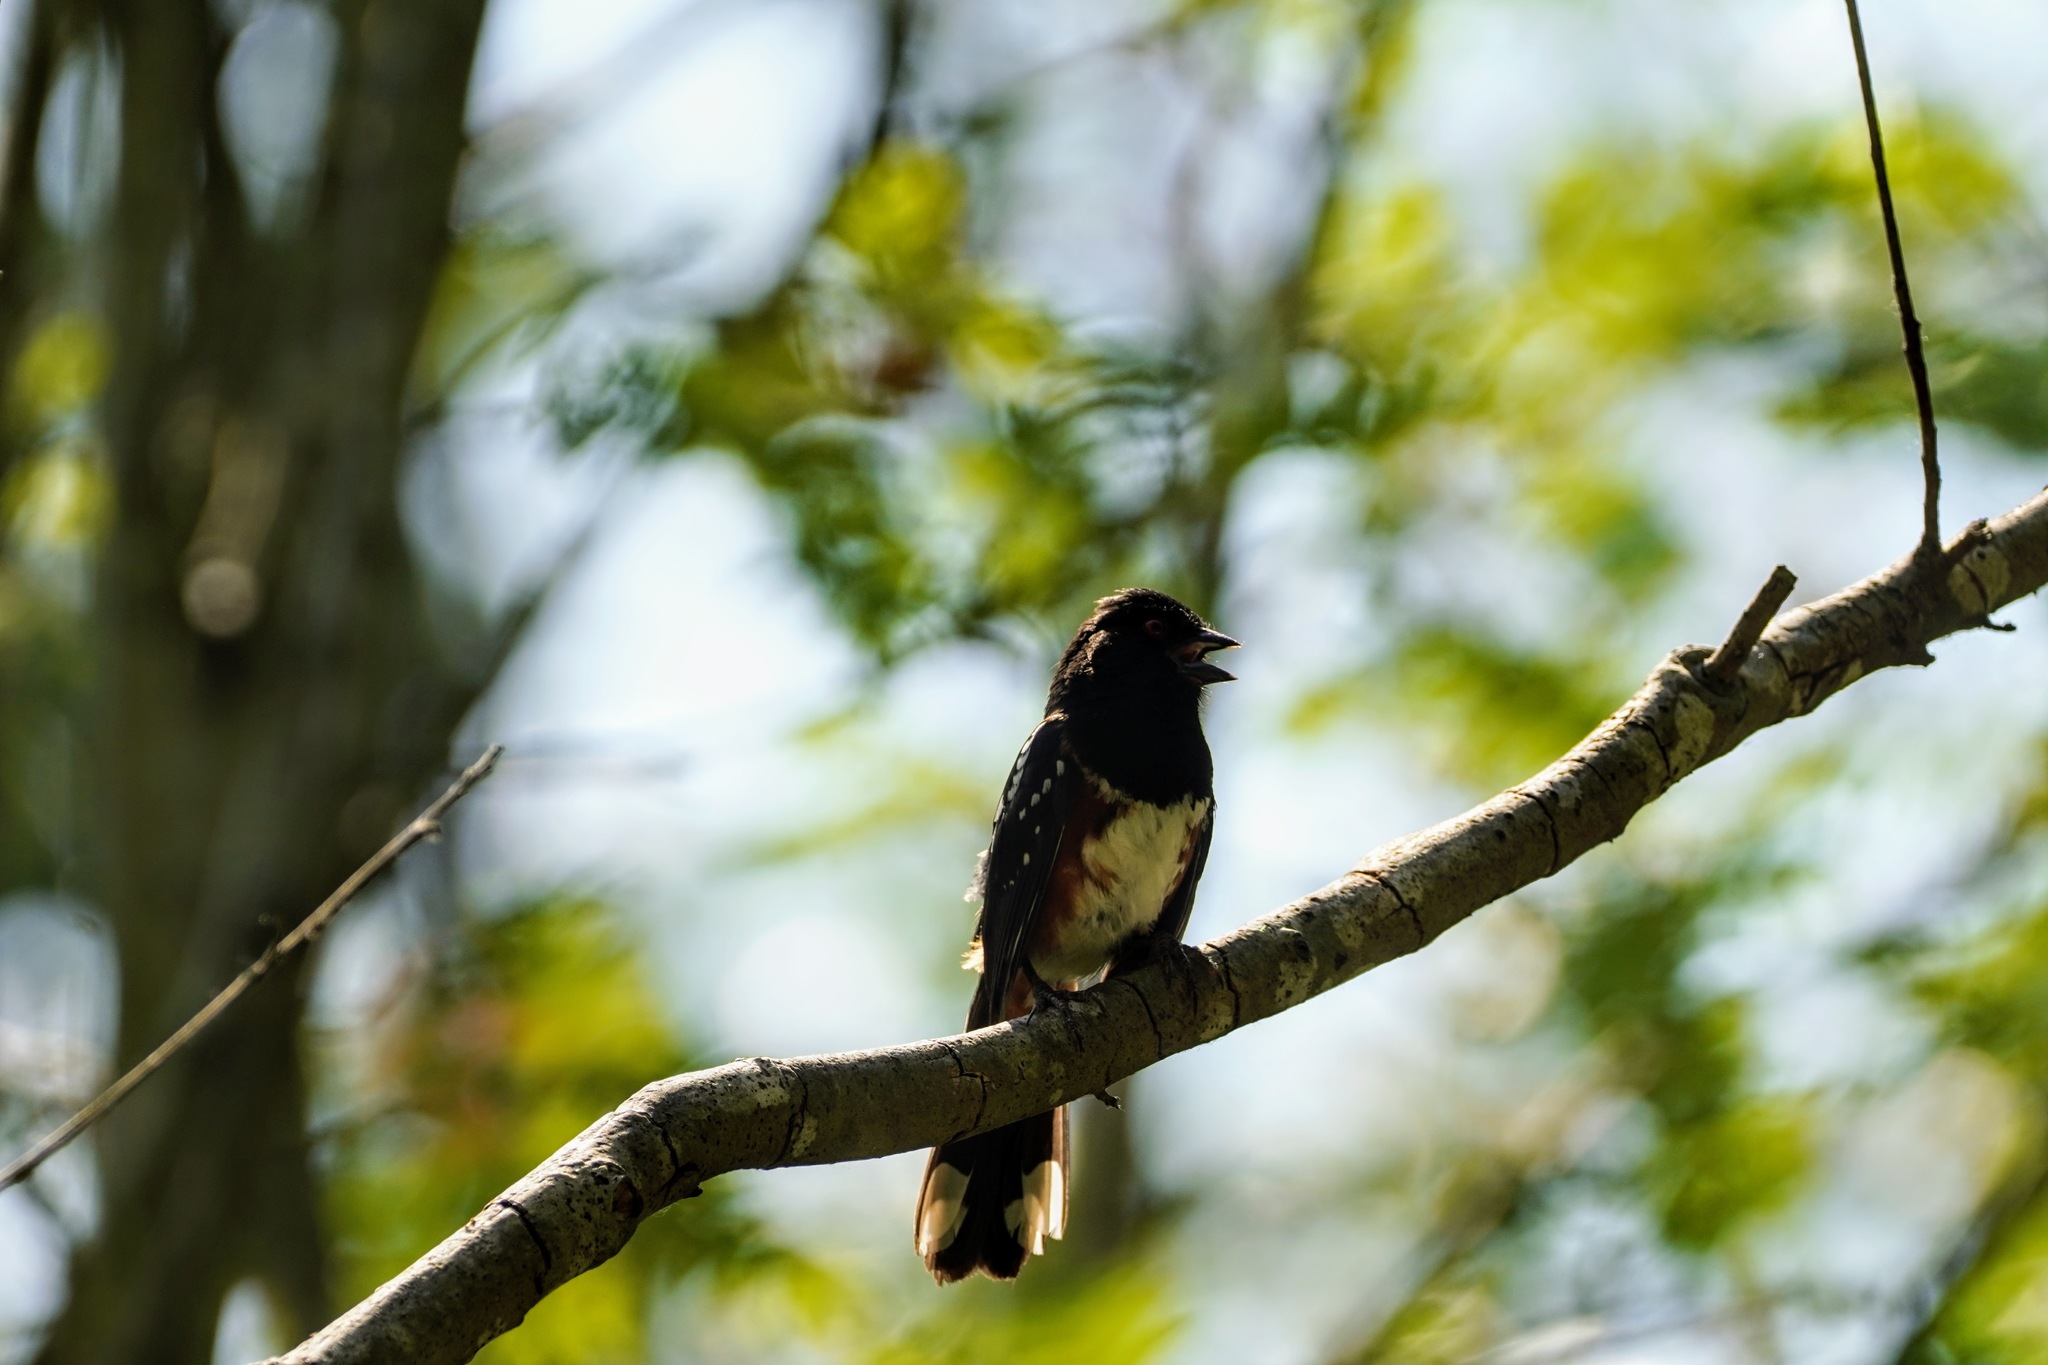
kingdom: Animalia
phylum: Chordata
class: Aves
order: Passeriformes
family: Passerellidae
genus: Pipilo
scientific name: Pipilo maculatus
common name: Spotted towhee
